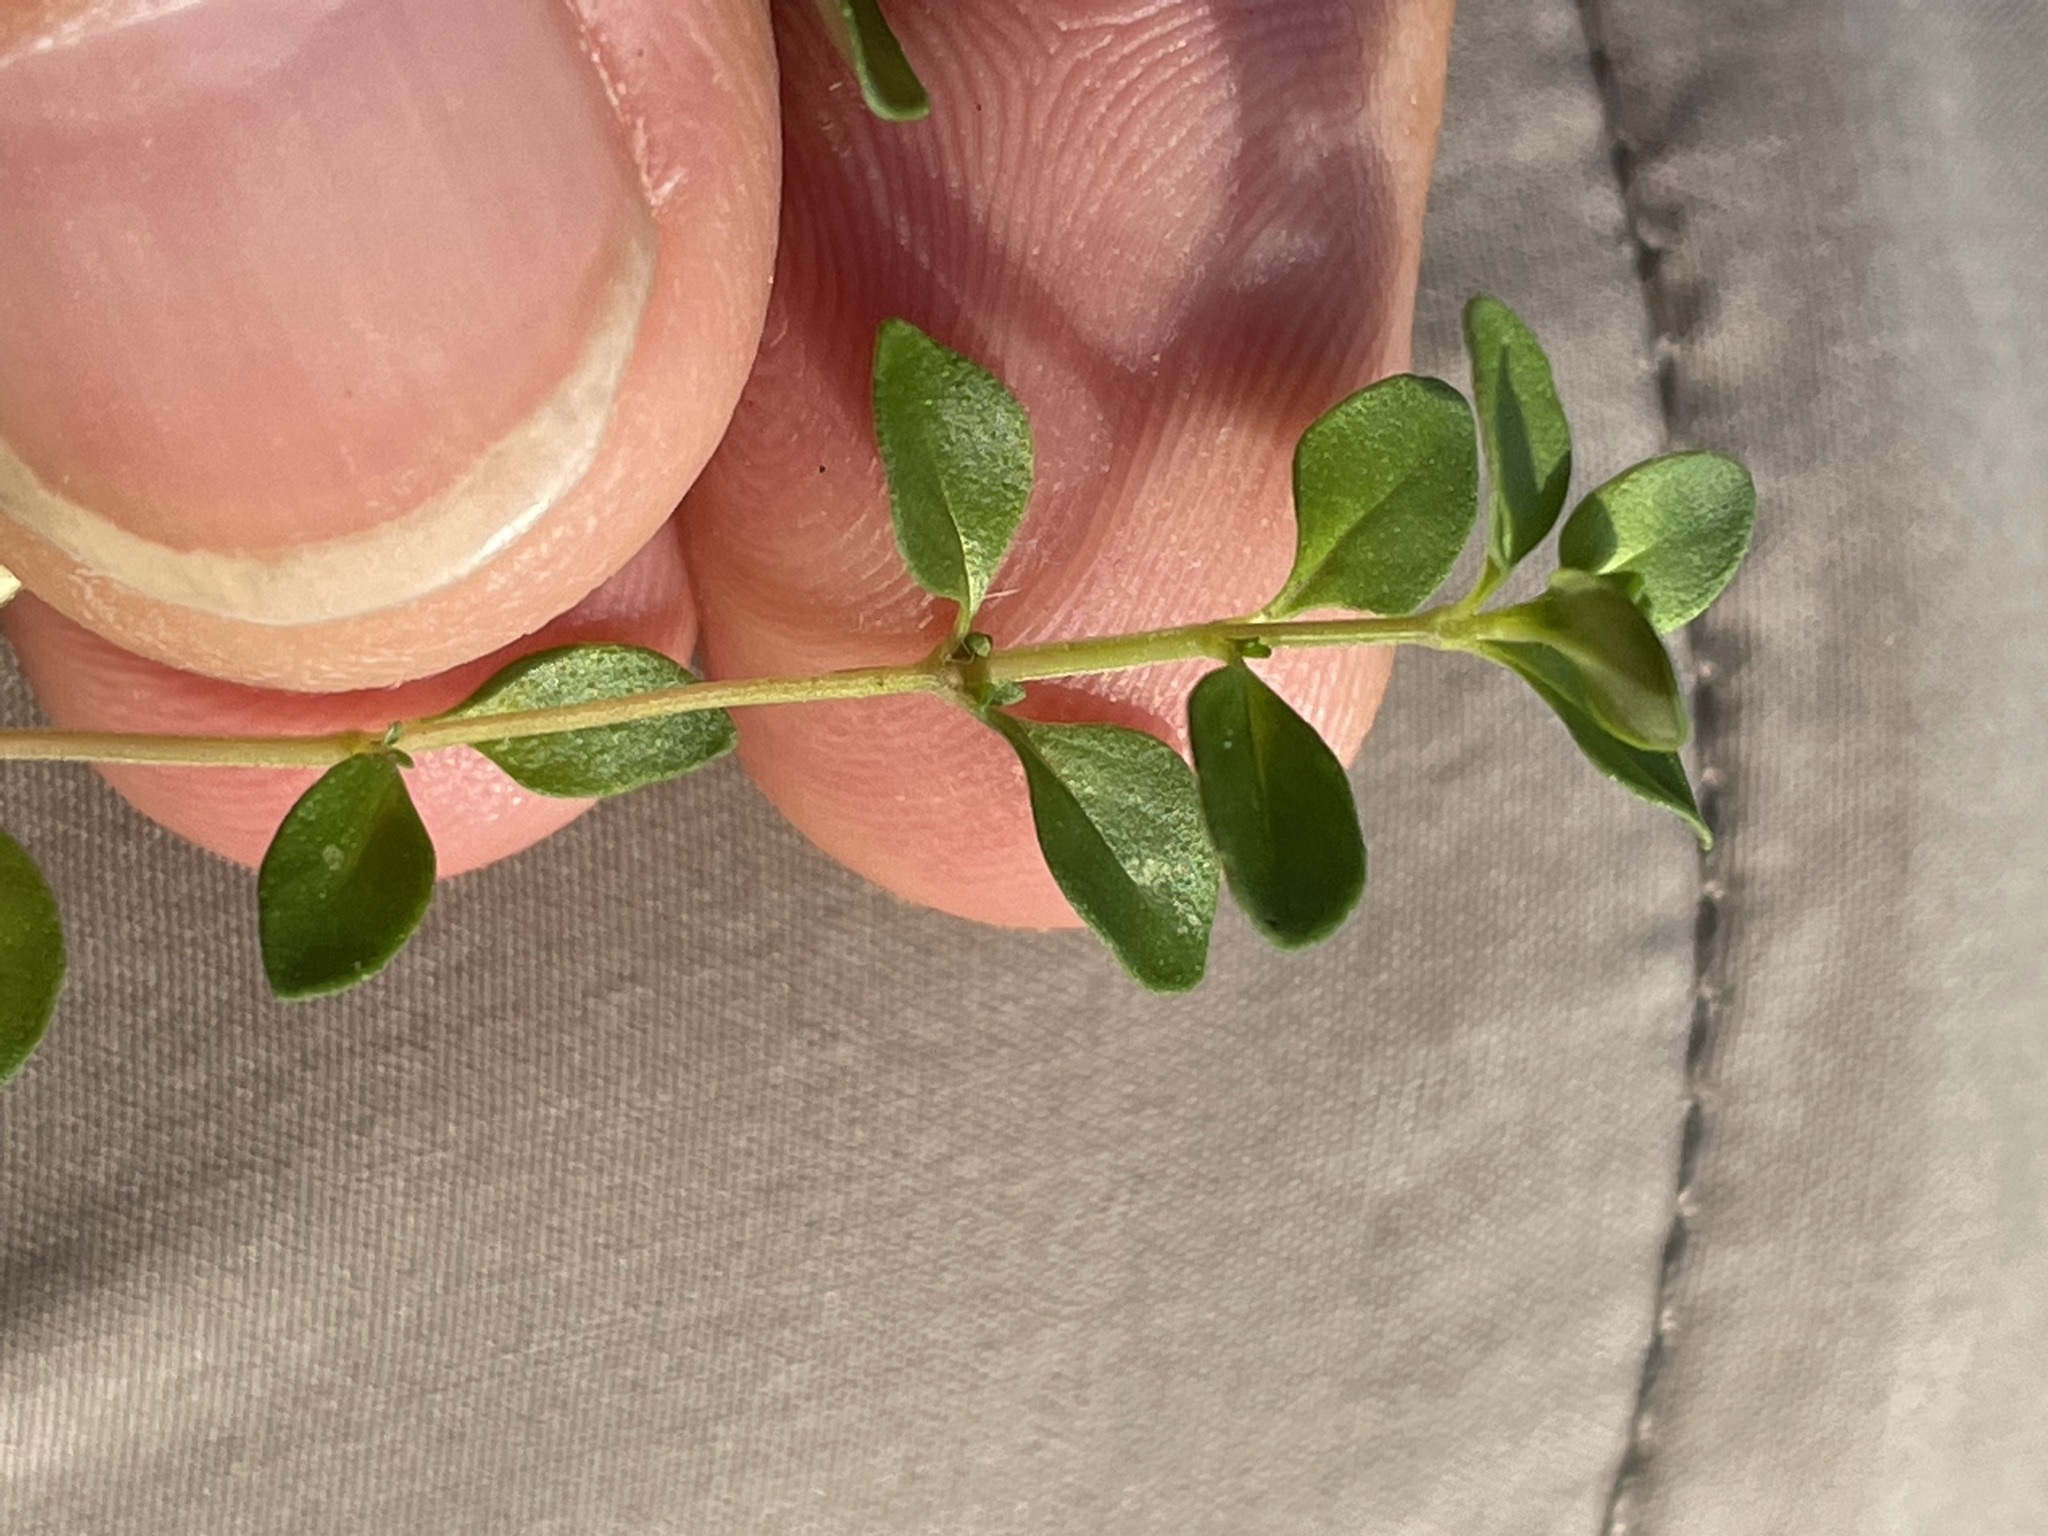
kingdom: Plantae
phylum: Tracheophyta
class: Magnoliopsida
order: Lamiales
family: Lamiaceae
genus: Thymus
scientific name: Thymus pulegioides
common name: Large thyme
